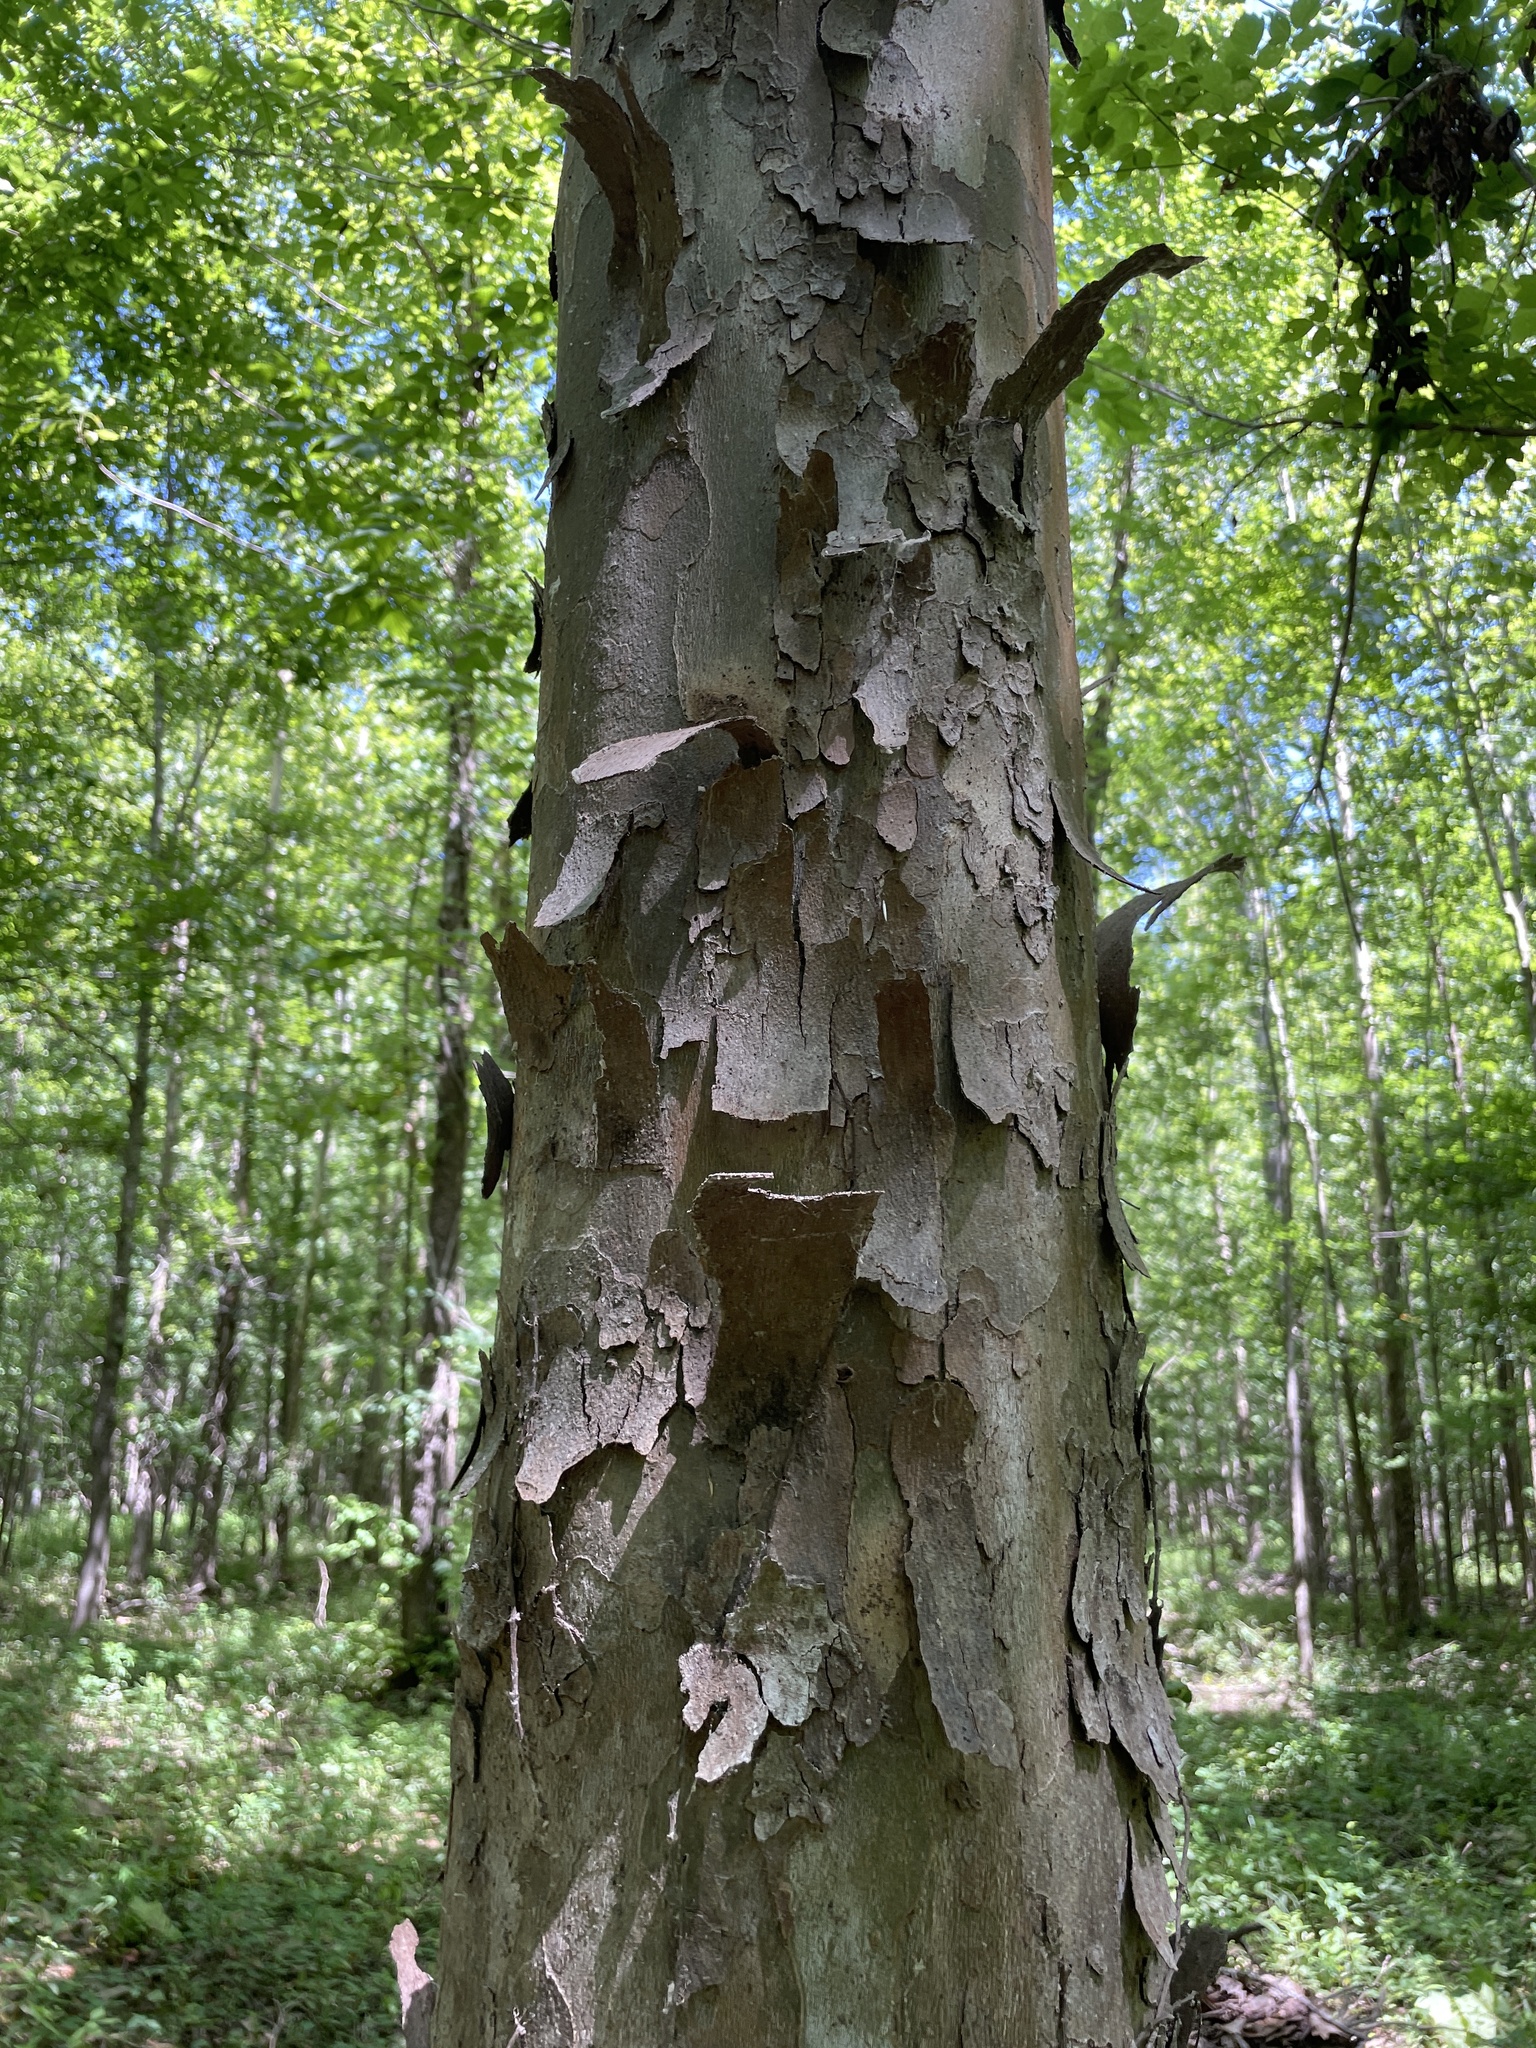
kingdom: Plantae
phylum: Tracheophyta
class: Magnoliopsida
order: Proteales
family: Platanaceae
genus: Platanus
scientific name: Platanus occidentalis
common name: American sycamore
